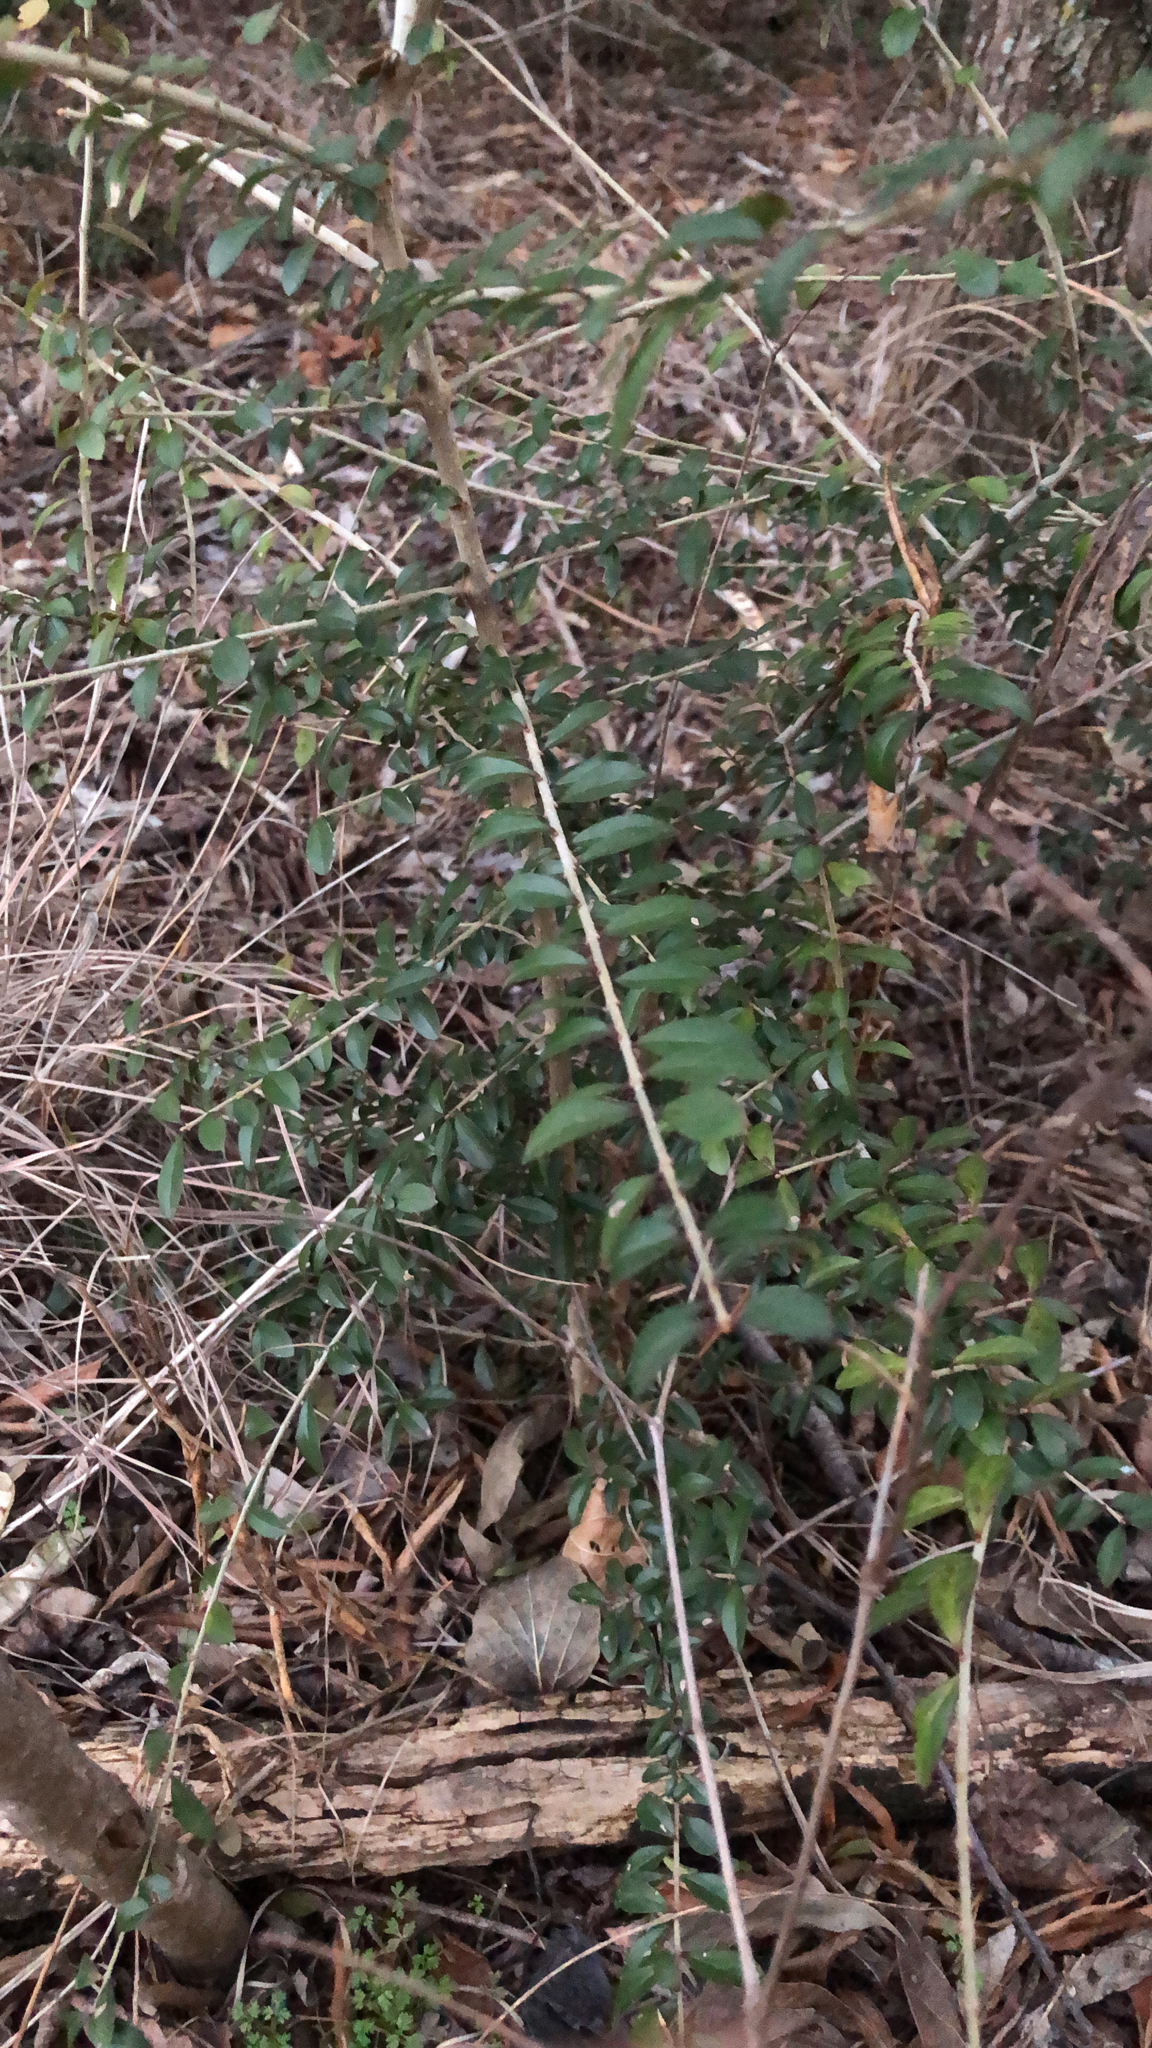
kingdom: Plantae
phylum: Tracheophyta
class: Magnoliopsida
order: Lamiales
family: Oleaceae
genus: Ligustrum
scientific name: Ligustrum quihoui
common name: Waxyleaf privet
